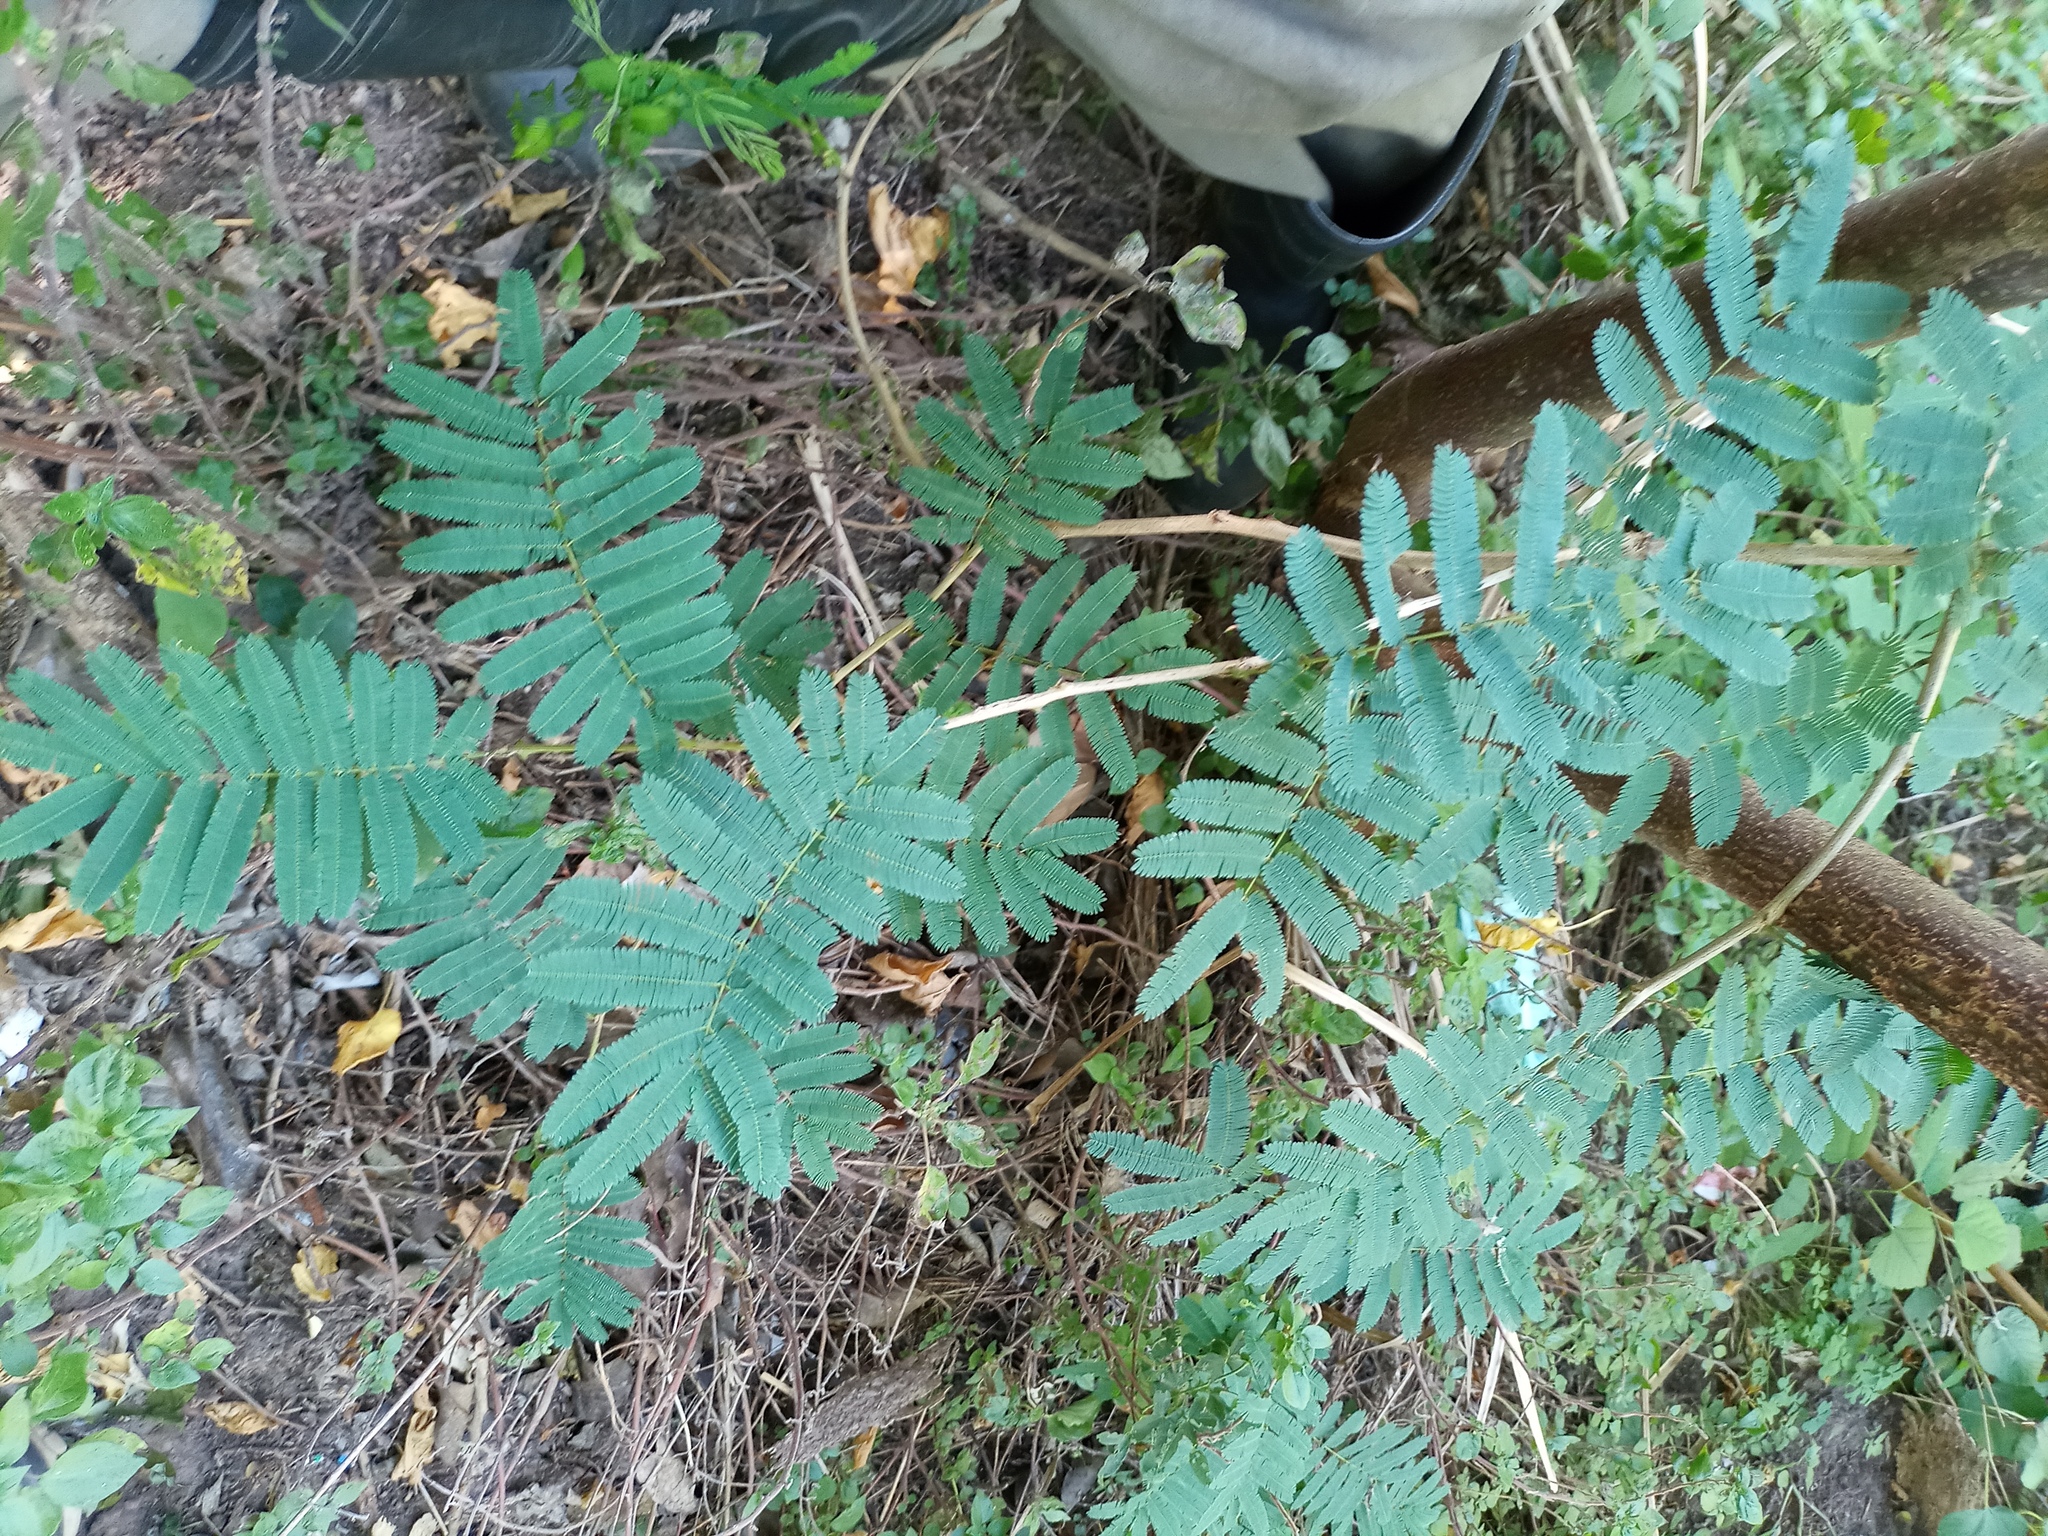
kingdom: Plantae
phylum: Tracheophyta
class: Magnoliopsida
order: Fabales
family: Fabaceae
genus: Senegalia
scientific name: Senegalia bonariensis
